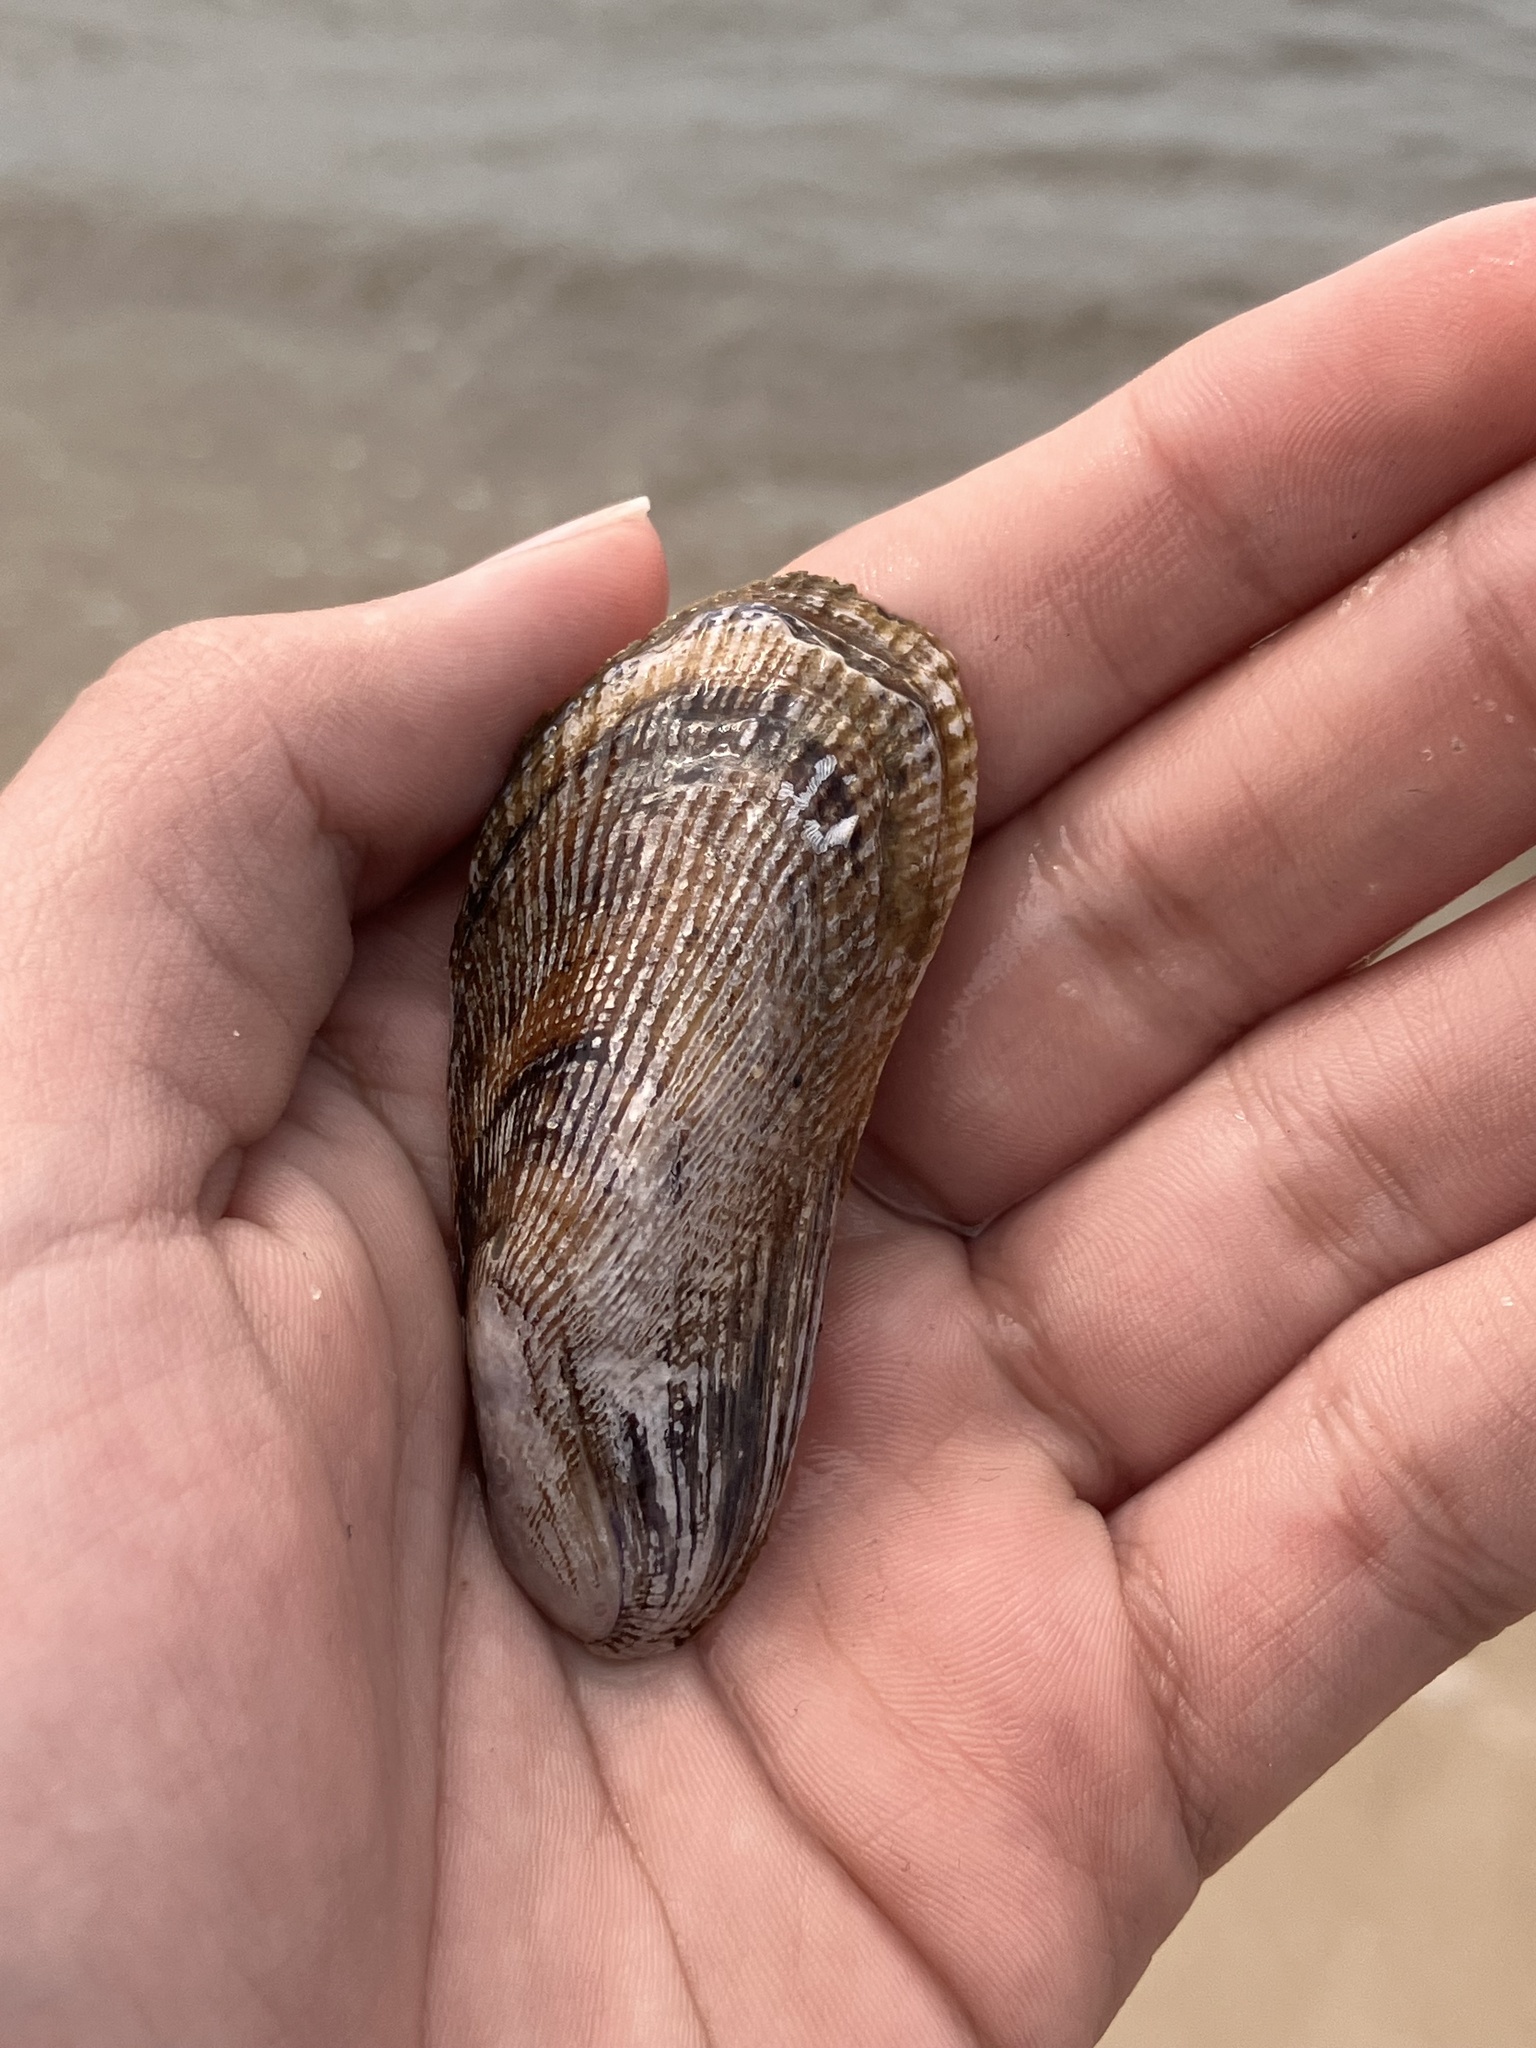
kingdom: Animalia
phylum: Mollusca
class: Bivalvia
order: Mytilida
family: Mytilidae
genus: Geukensia
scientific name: Geukensia demissa
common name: Ribbed mussel
